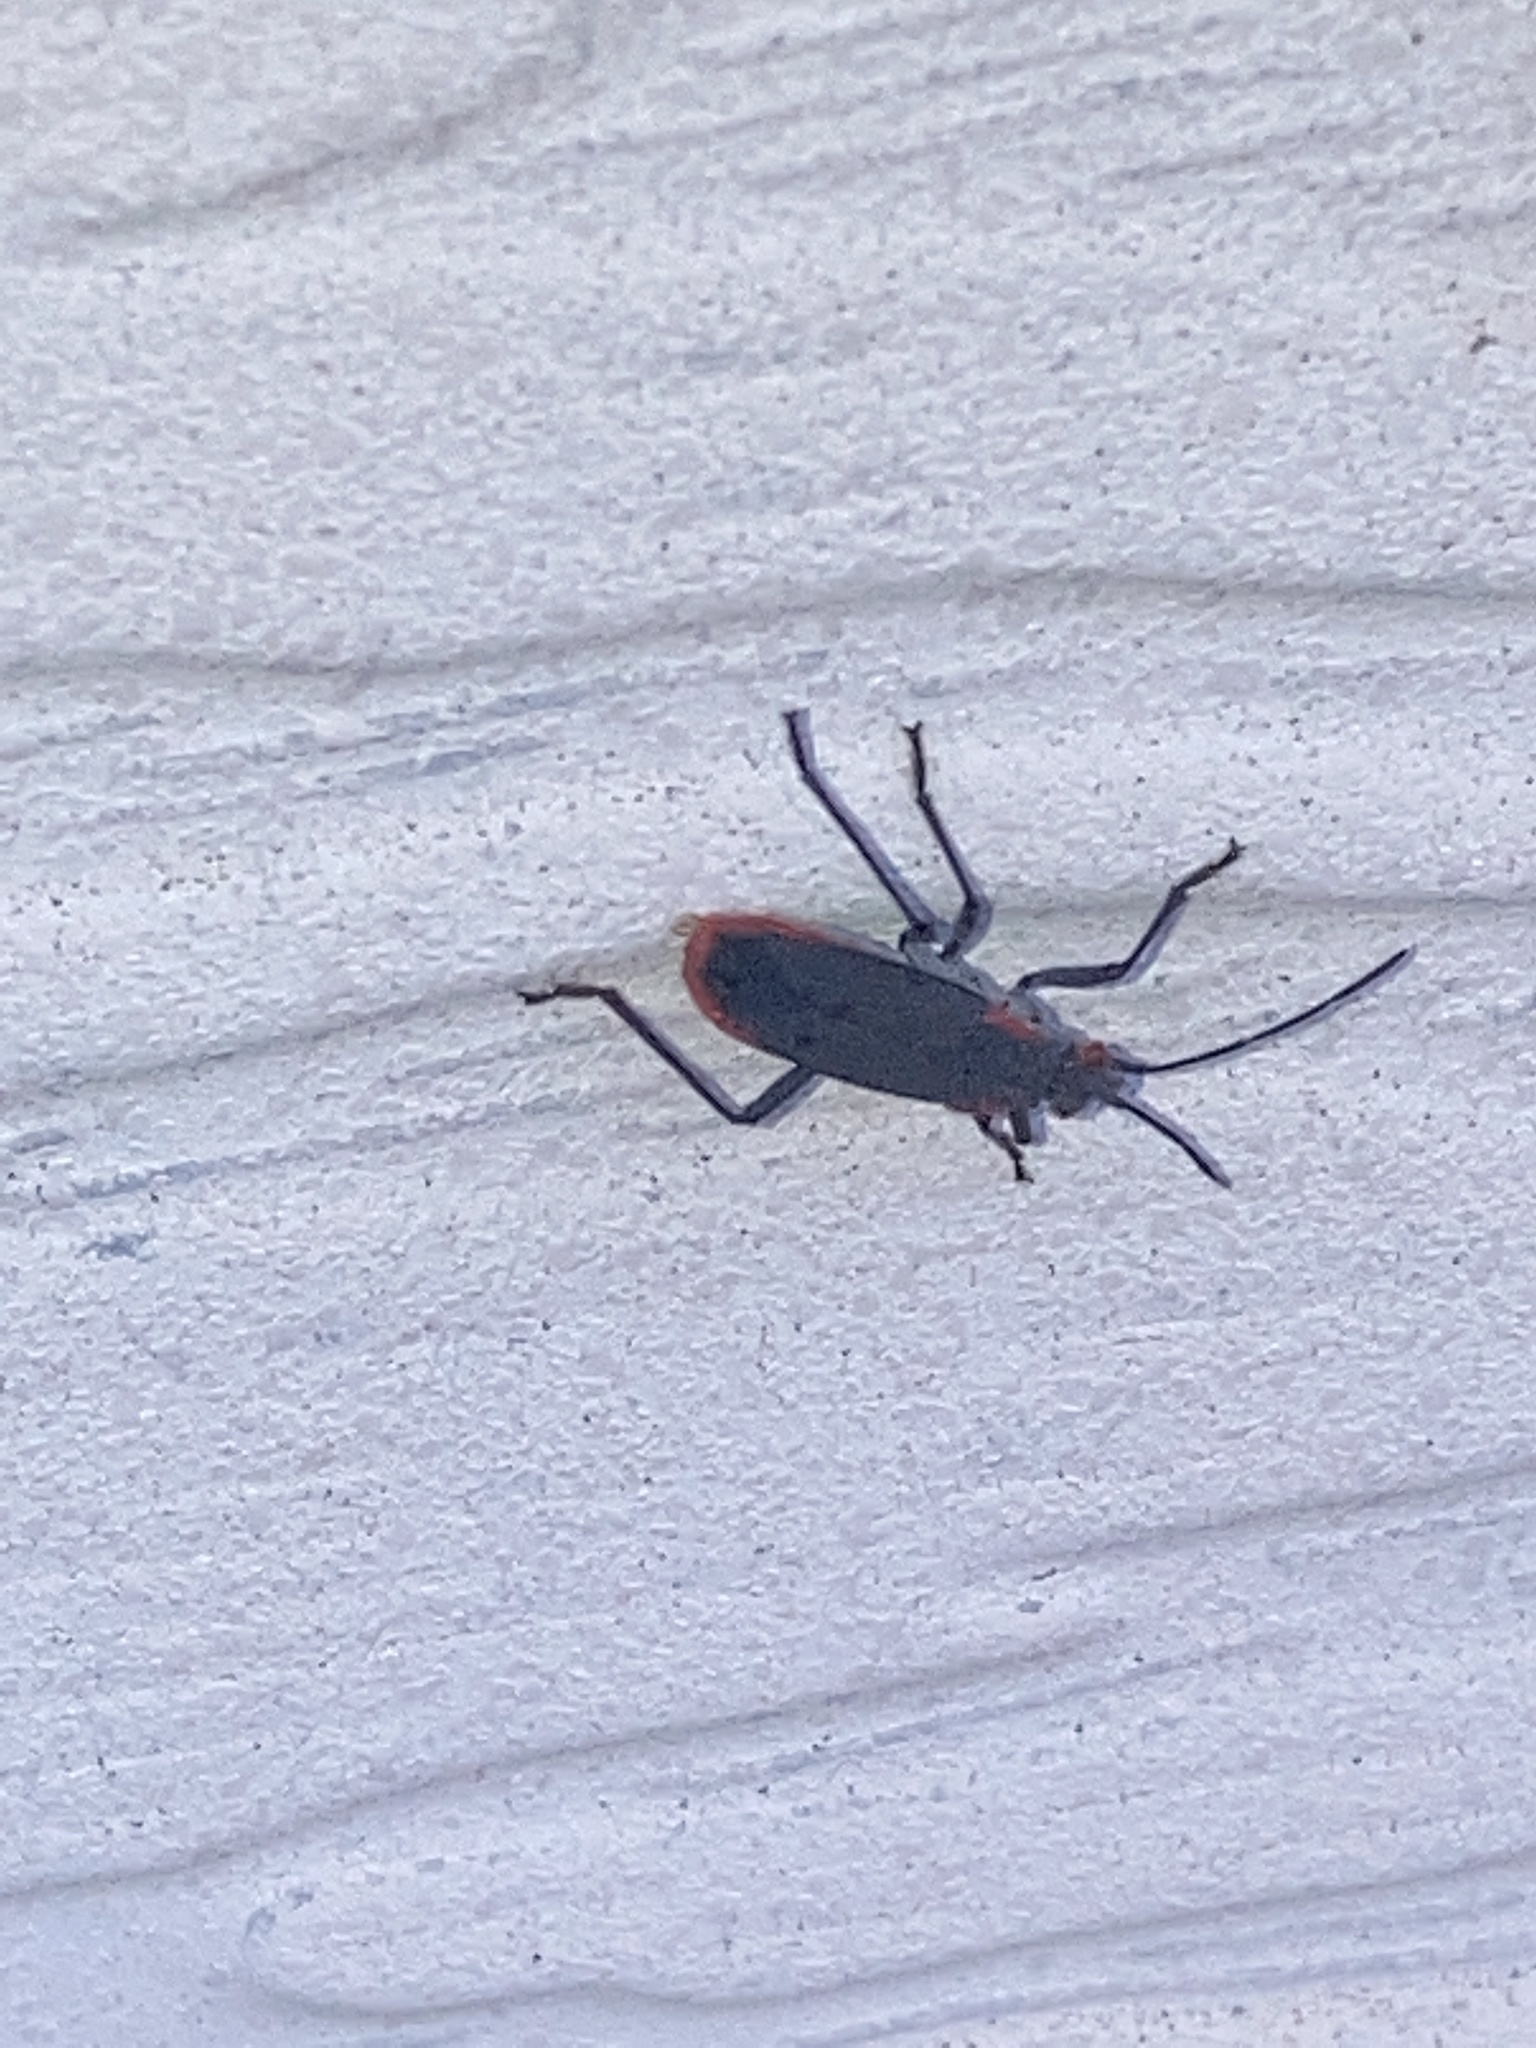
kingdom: Animalia
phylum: Arthropoda
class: Insecta
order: Hemiptera
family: Rhopalidae
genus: Jadera
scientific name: Jadera haematoloma
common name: Red-shouldered bug
